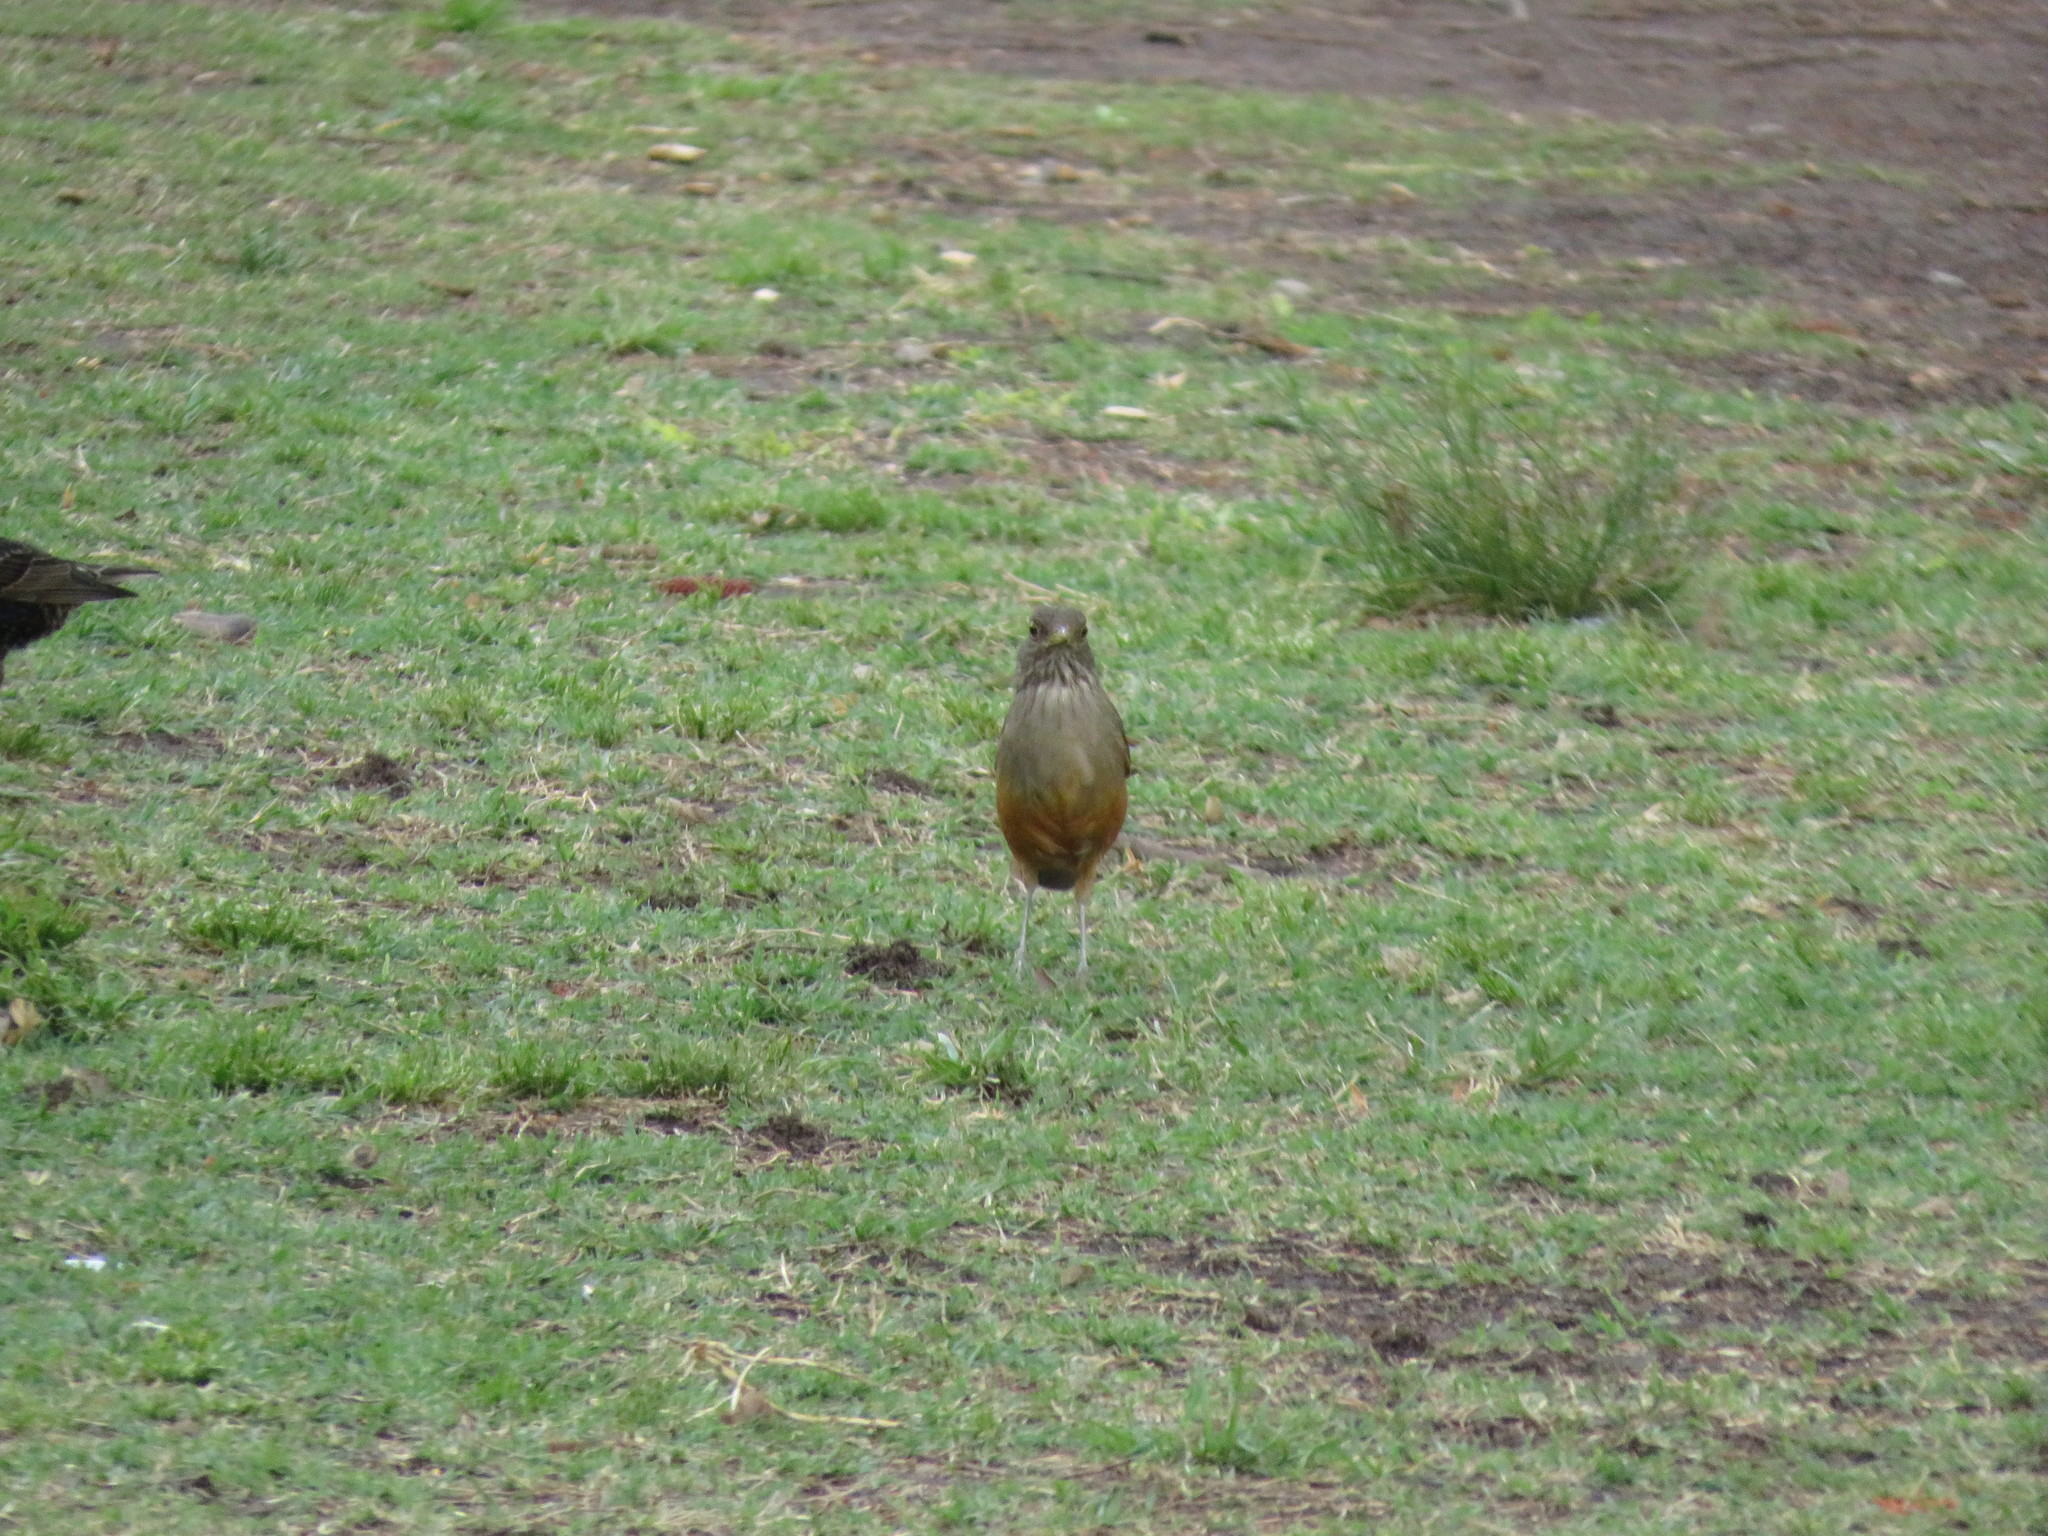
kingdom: Animalia
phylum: Chordata
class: Aves
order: Passeriformes
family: Turdidae
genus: Turdus
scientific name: Turdus rufiventris
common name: Rufous-bellied thrush
